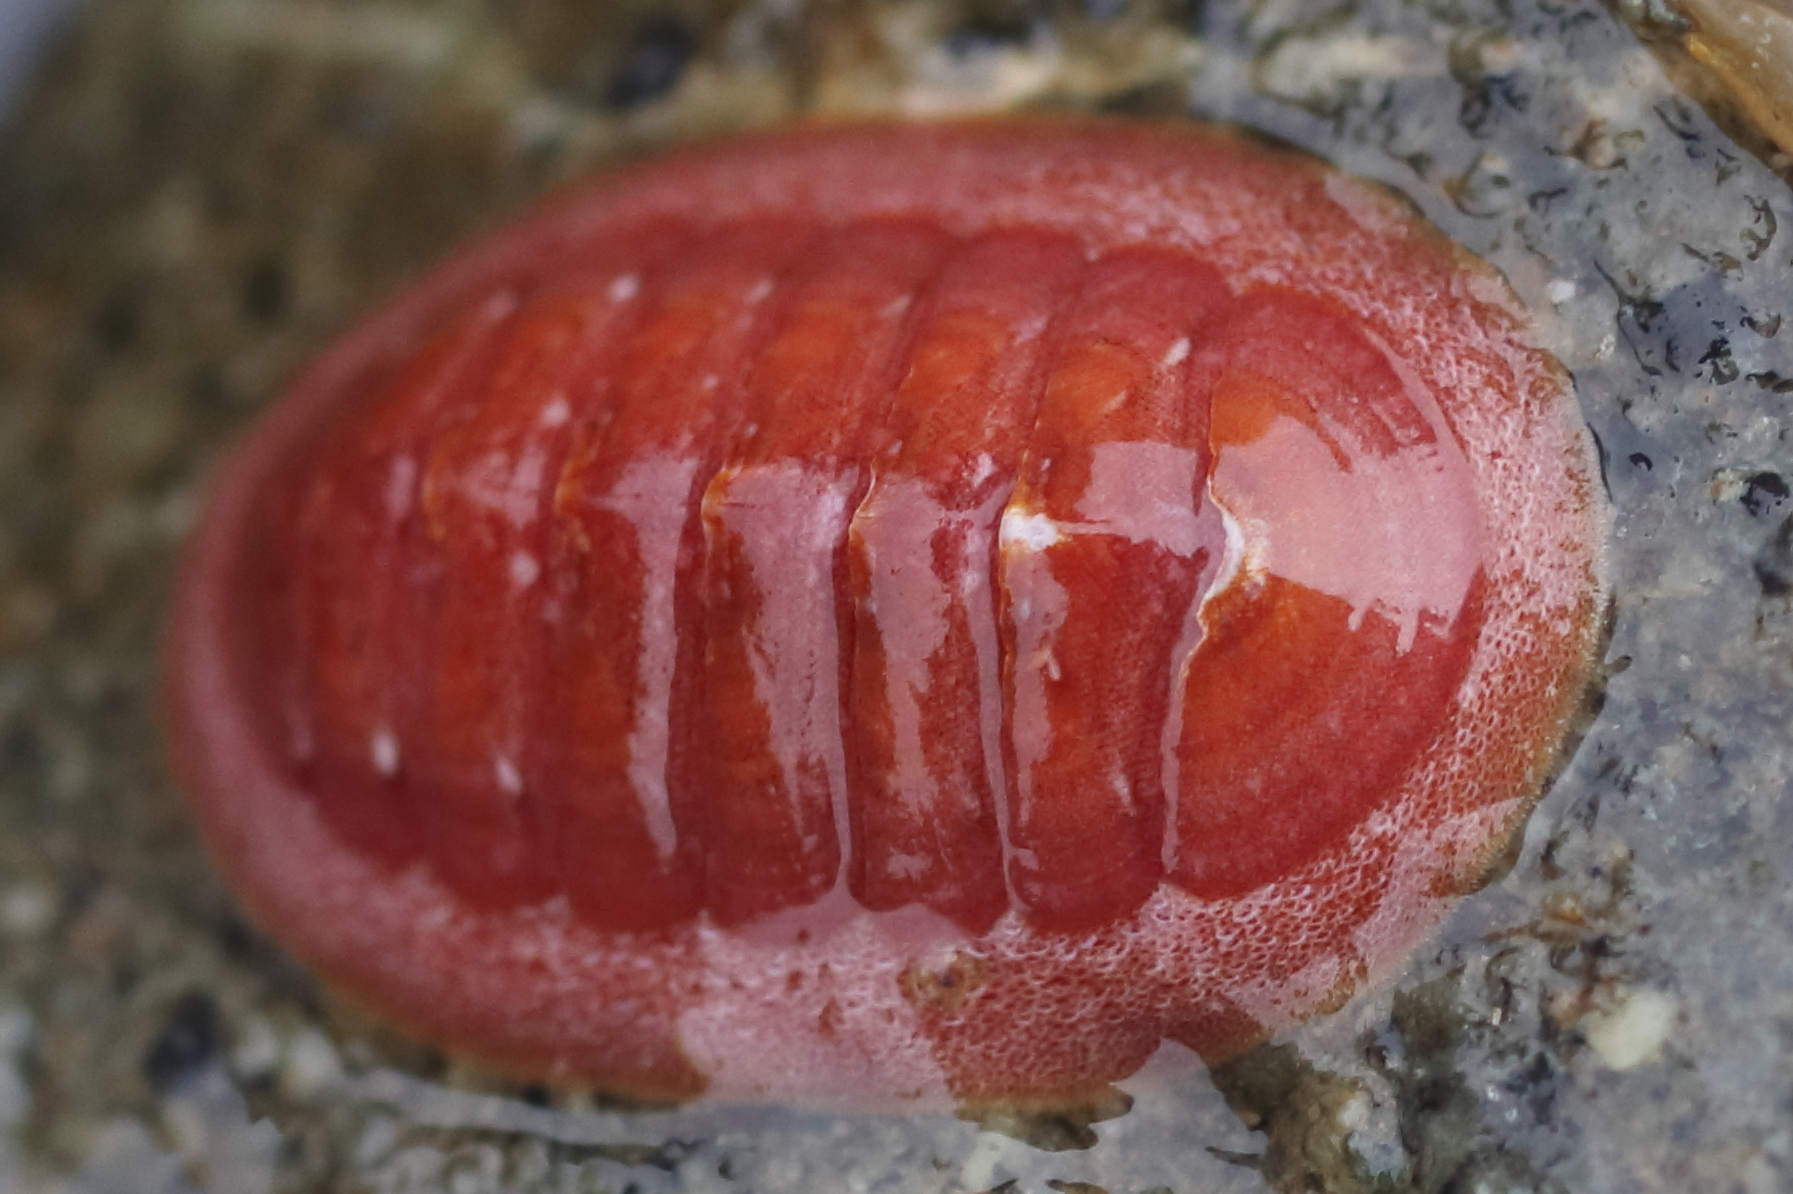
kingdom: Animalia
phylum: Mollusca
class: Polyplacophora
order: Chitonida
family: Ischnochitonidae
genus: Lepidozona
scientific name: Lepidozona interstincta
